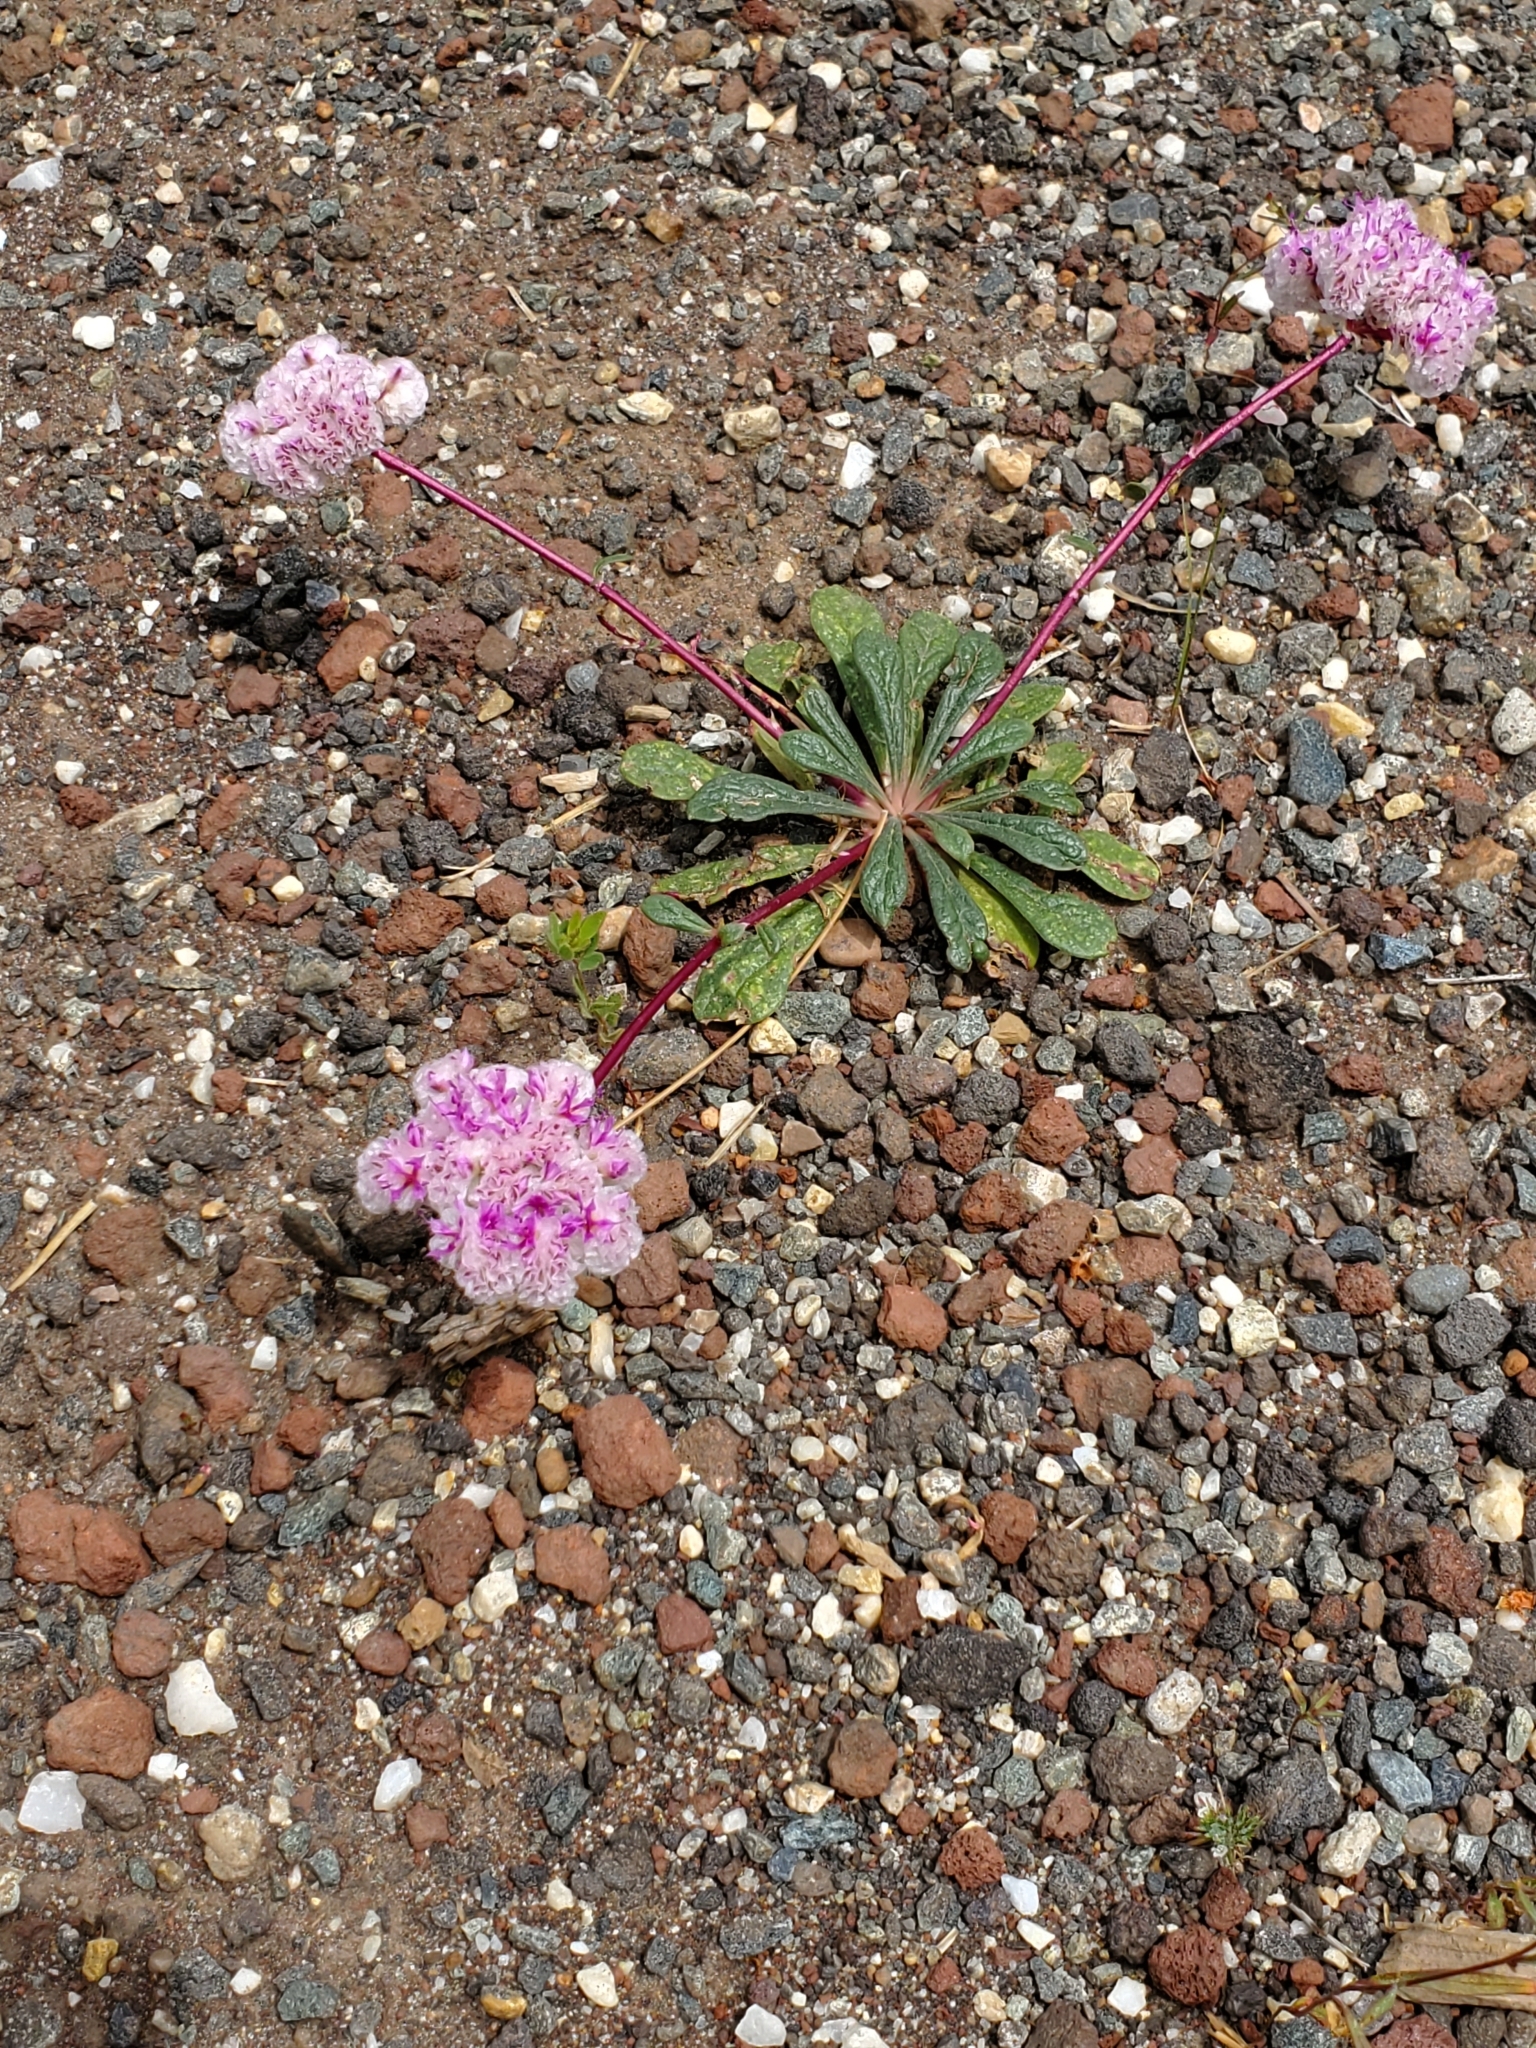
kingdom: Plantae
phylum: Tracheophyta
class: Magnoliopsida
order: Caryophyllales
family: Montiaceae
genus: Calyptridium
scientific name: Calyptridium monospermum
